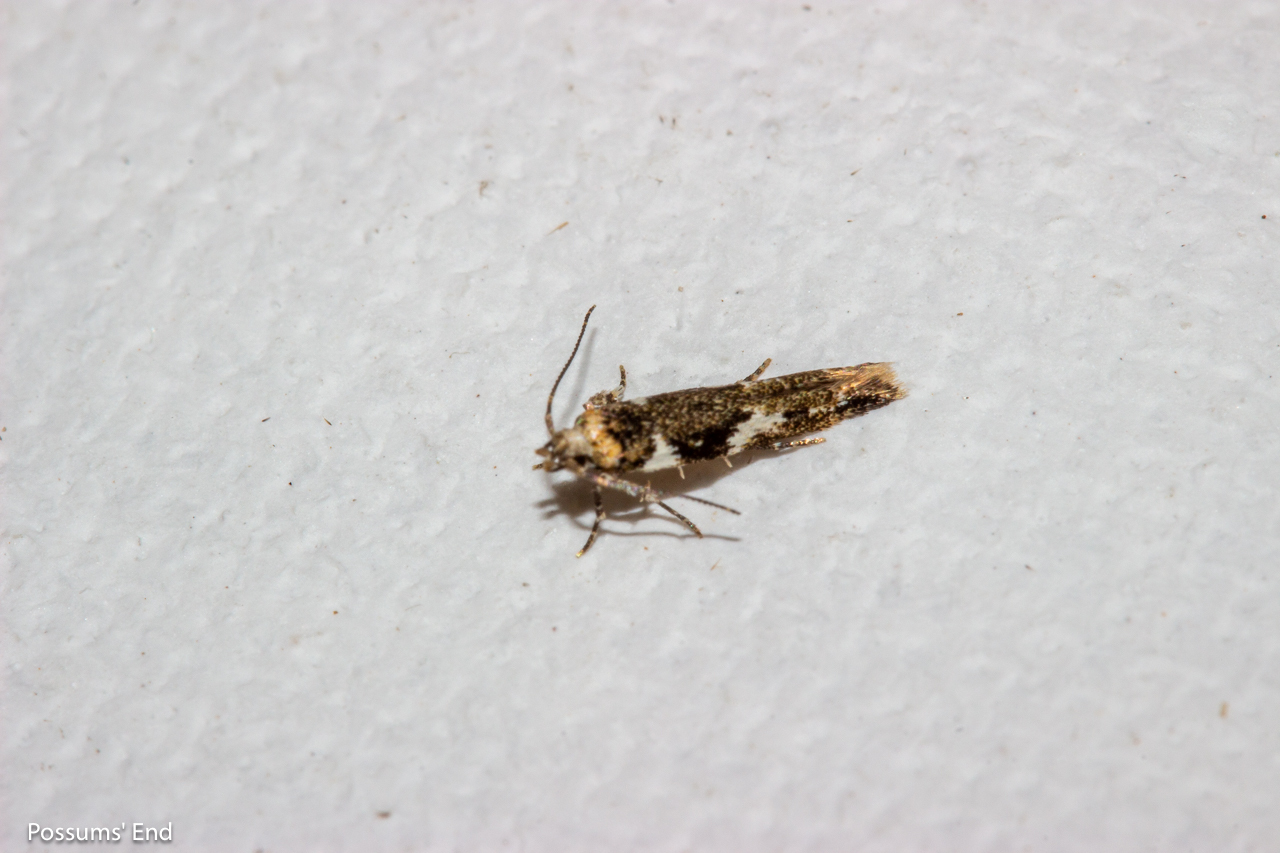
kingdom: Animalia
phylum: Arthropoda
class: Insecta
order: Lepidoptera
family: Cosmopterigidae
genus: Pyroderces
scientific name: Pyroderces deamatella
